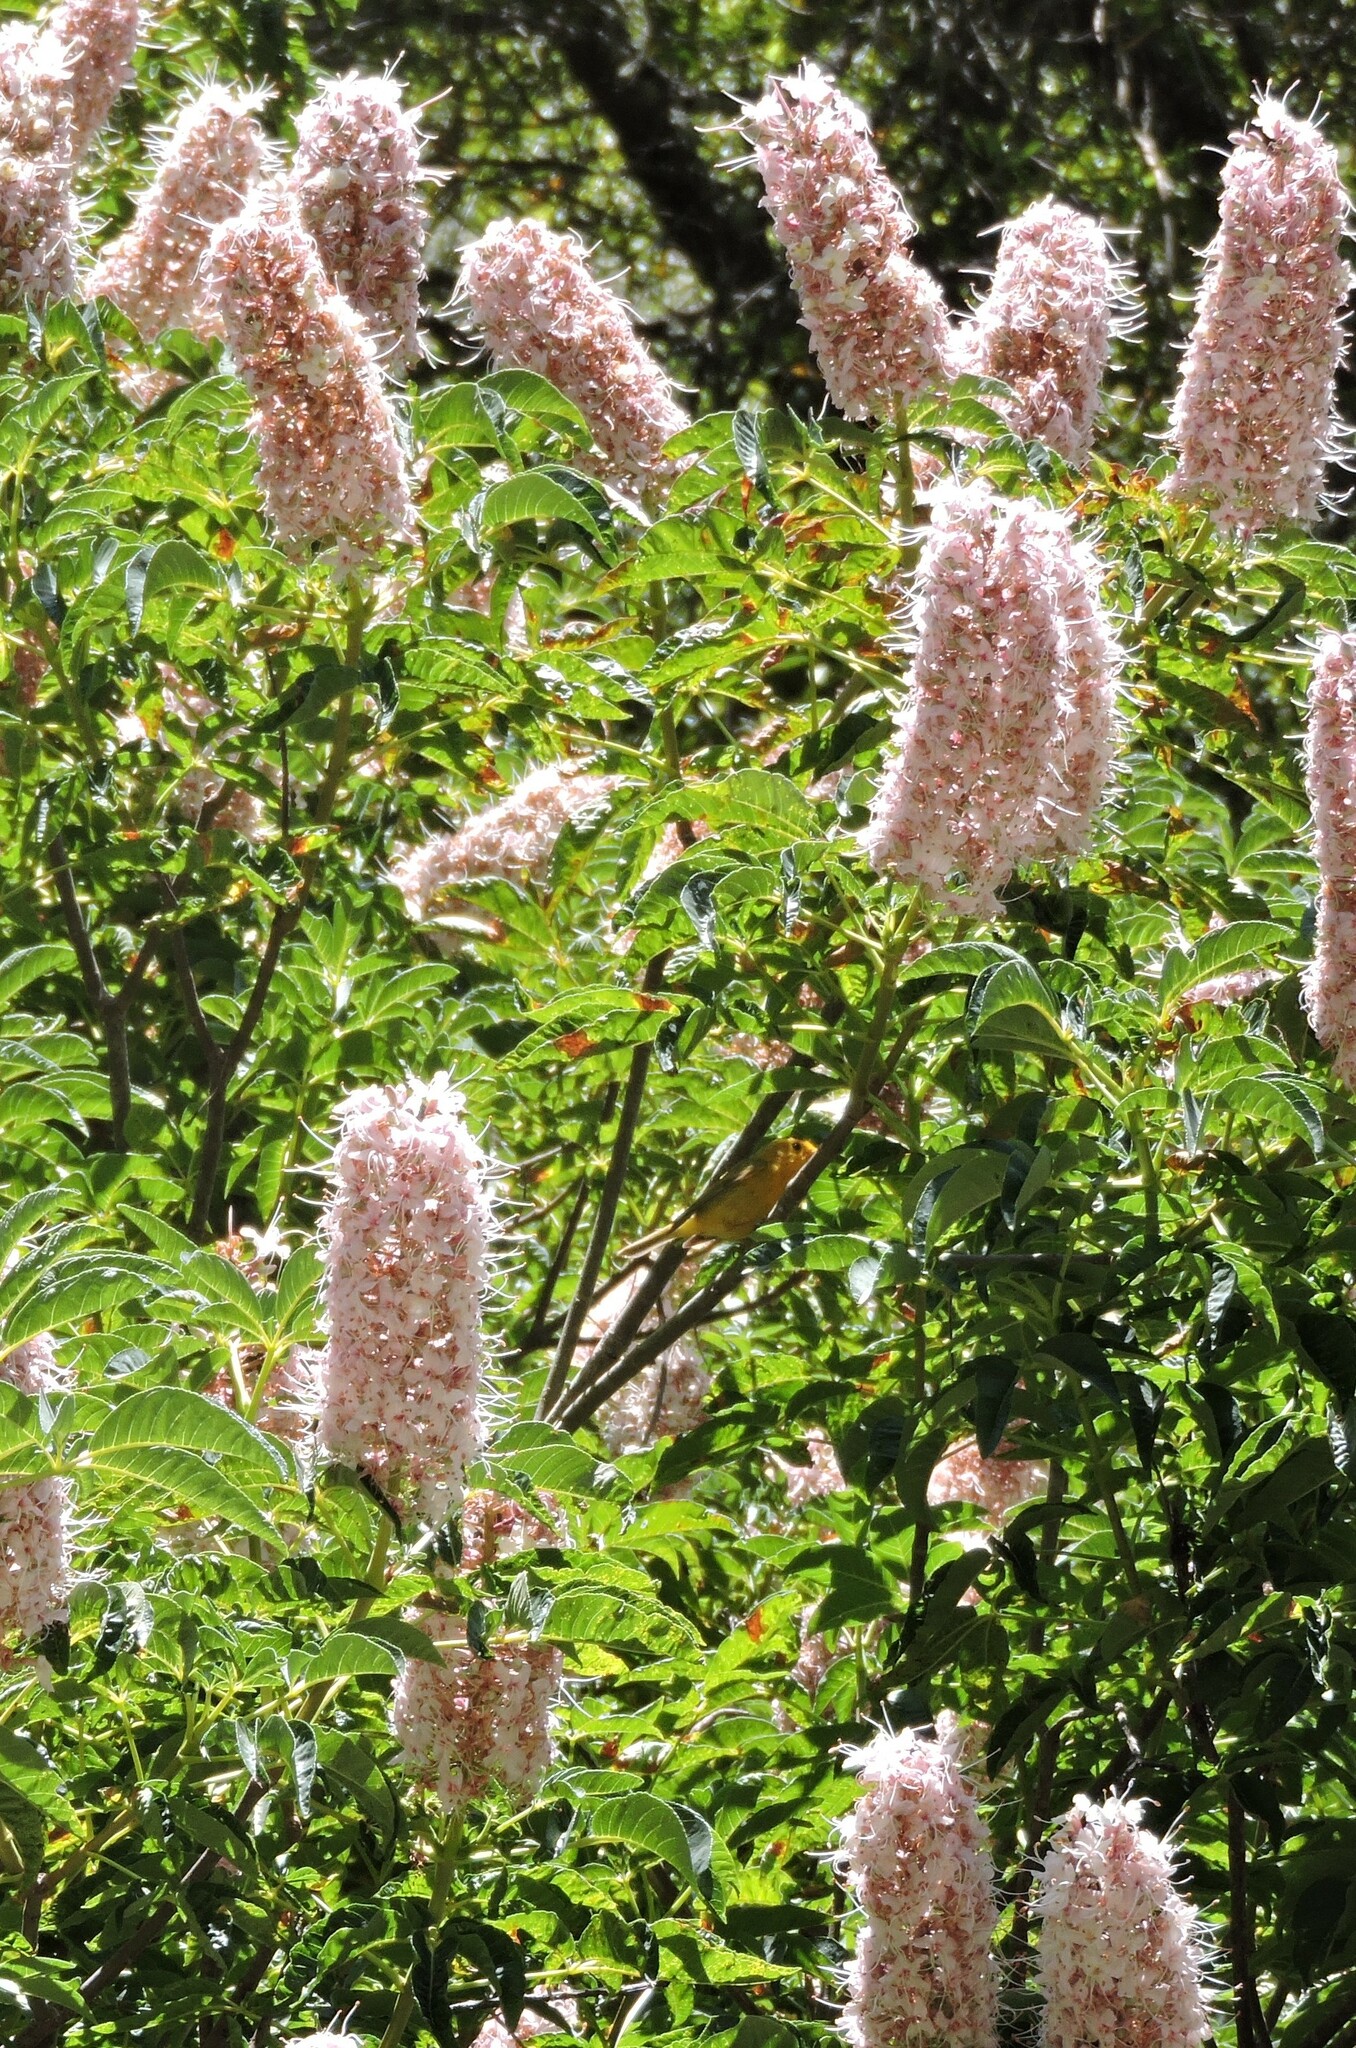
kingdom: Animalia
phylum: Chordata
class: Aves
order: Passeriformes
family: Parulidae
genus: Cardellina
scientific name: Cardellina pusilla
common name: Wilson's warbler
